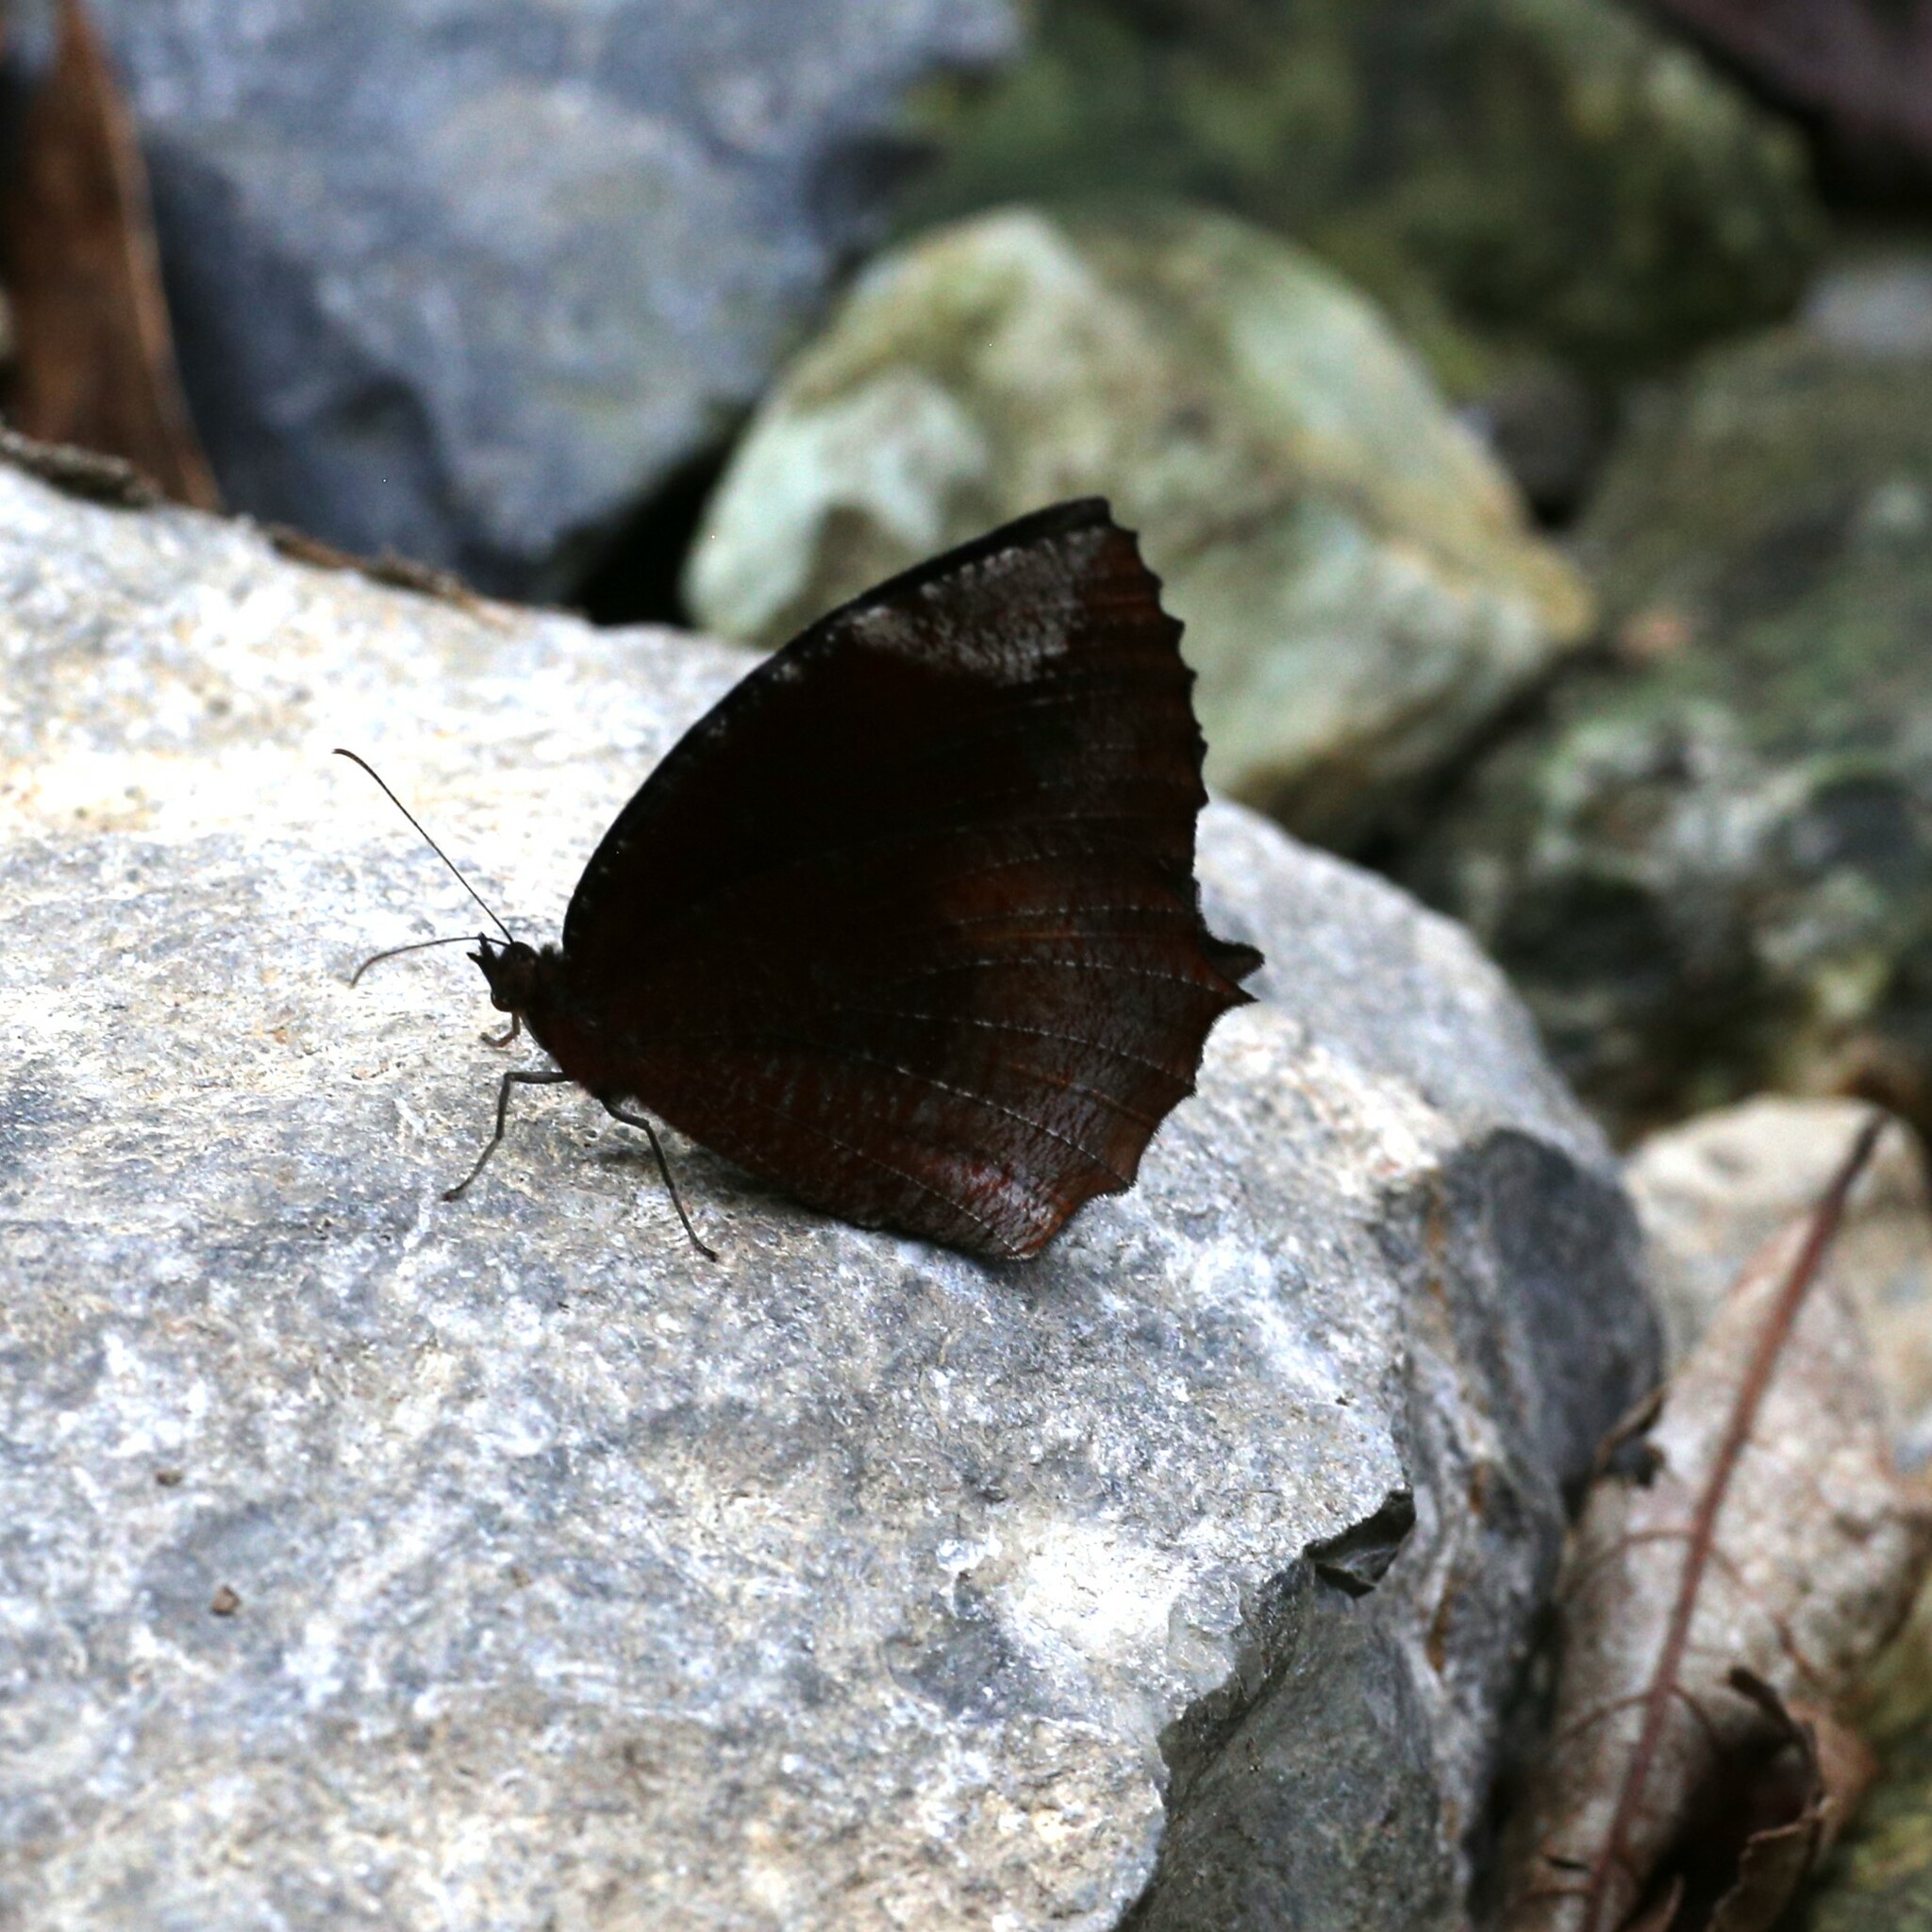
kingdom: Animalia
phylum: Arthropoda
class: Insecta
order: Lepidoptera
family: Nymphalidae
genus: Elymnias
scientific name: Elymnias hypermnestra
